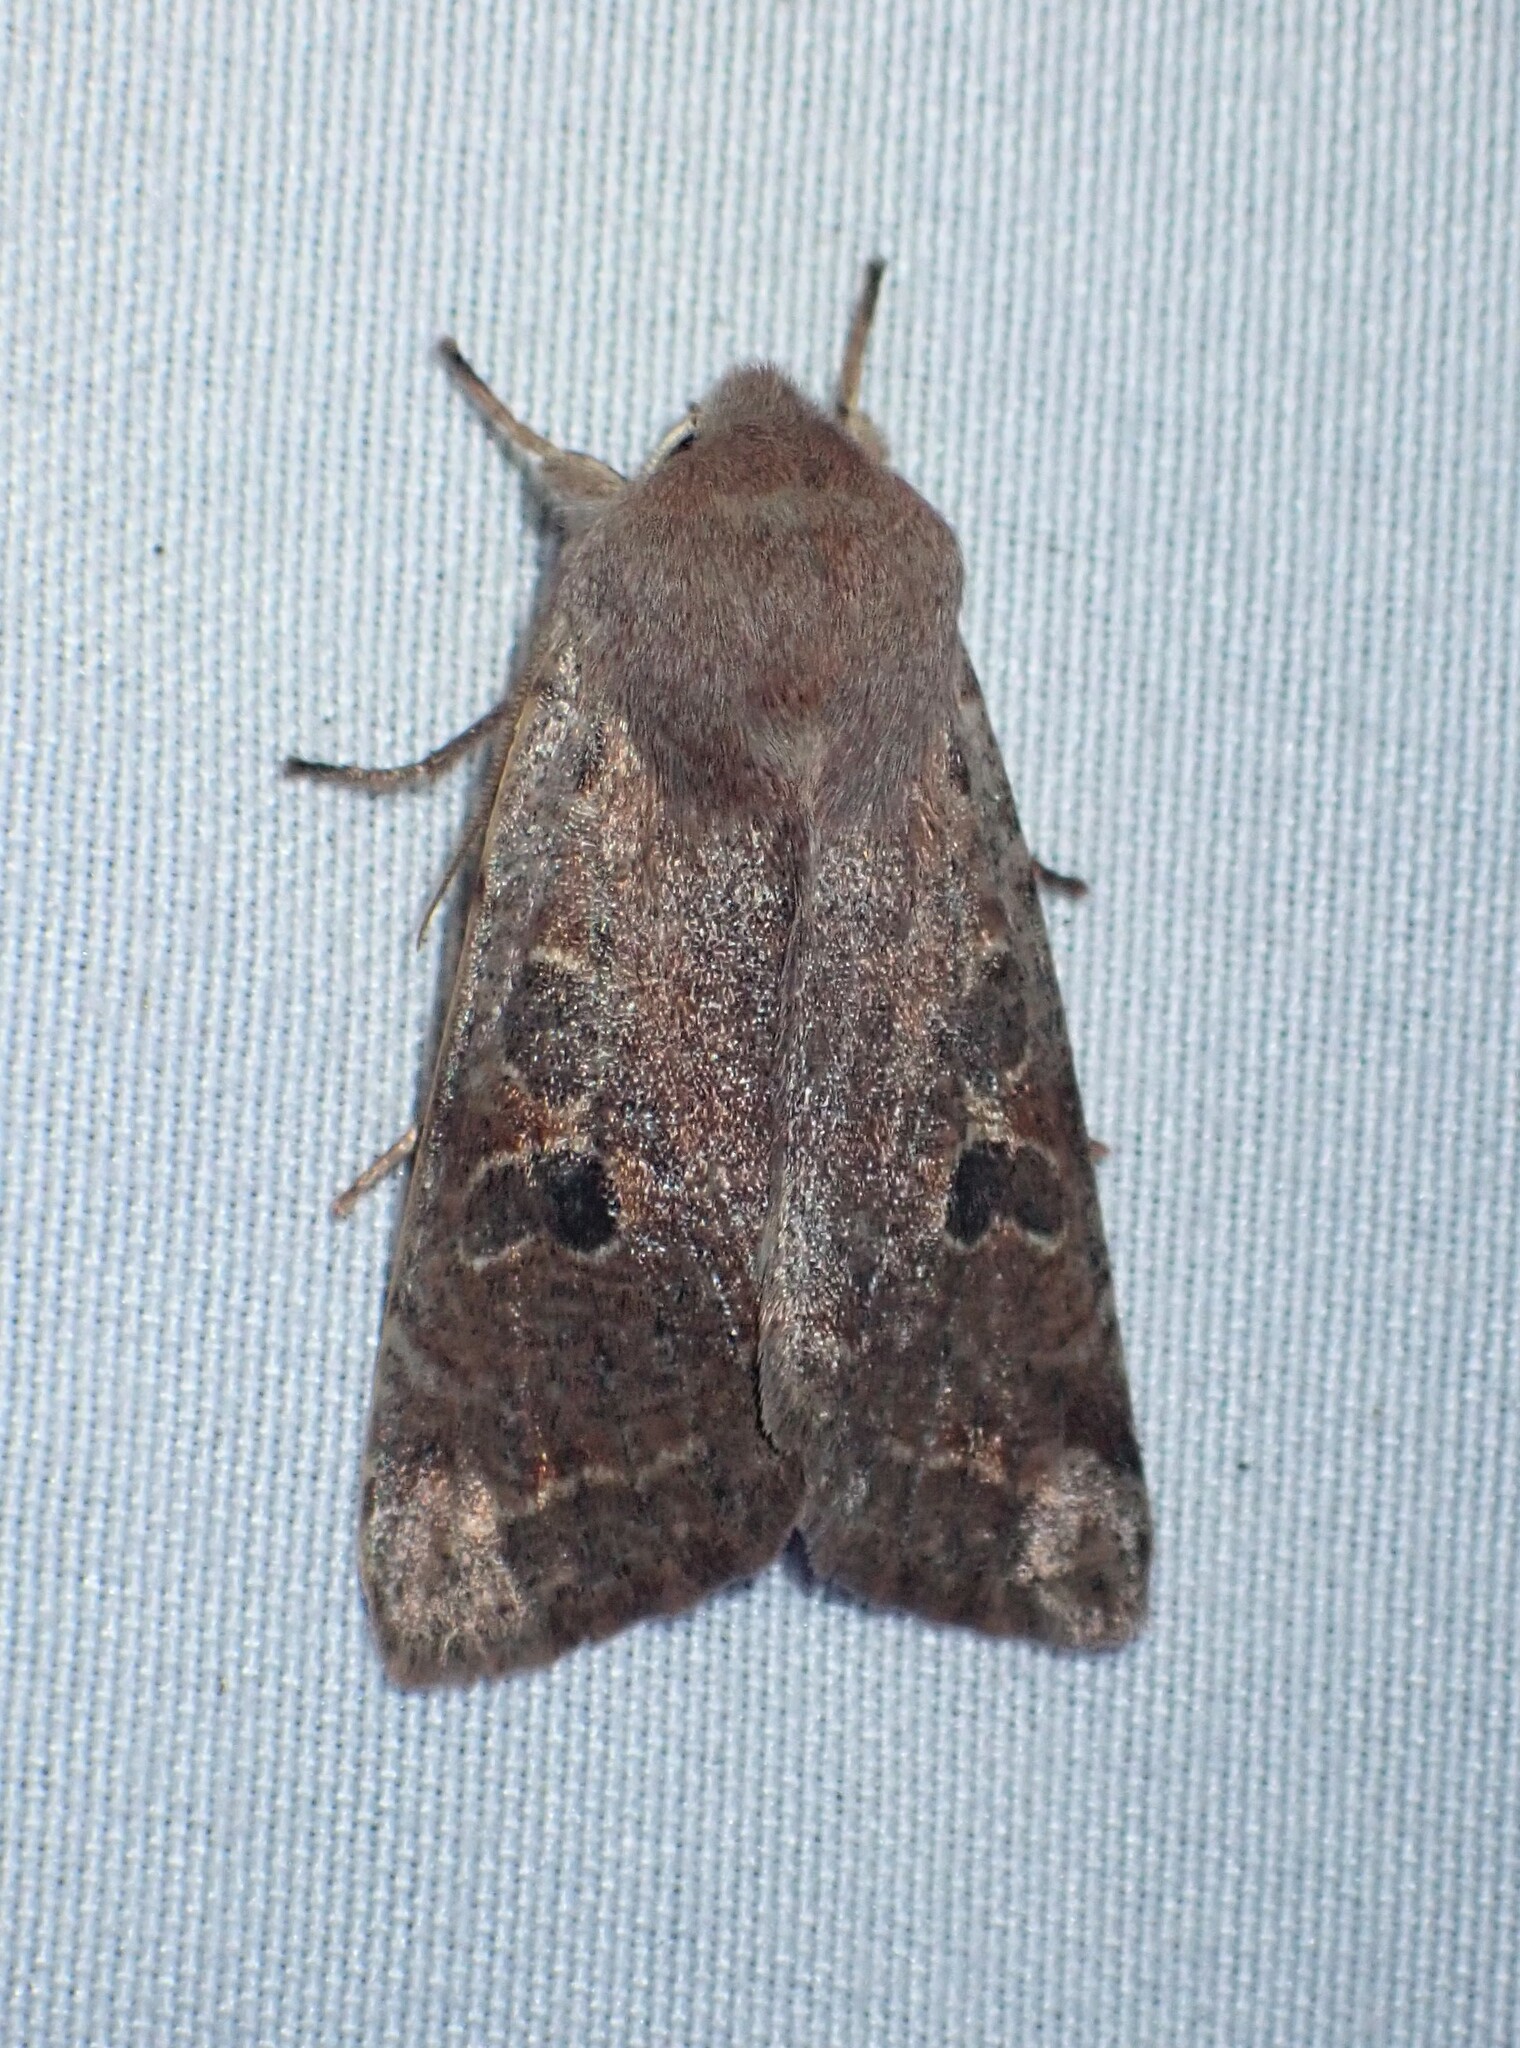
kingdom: Animalia
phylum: Arthropoda
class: Insecta
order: Lepidoptera
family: Noctuidae
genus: Orthosia
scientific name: Orthosia hibisci
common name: Green fruitworm
